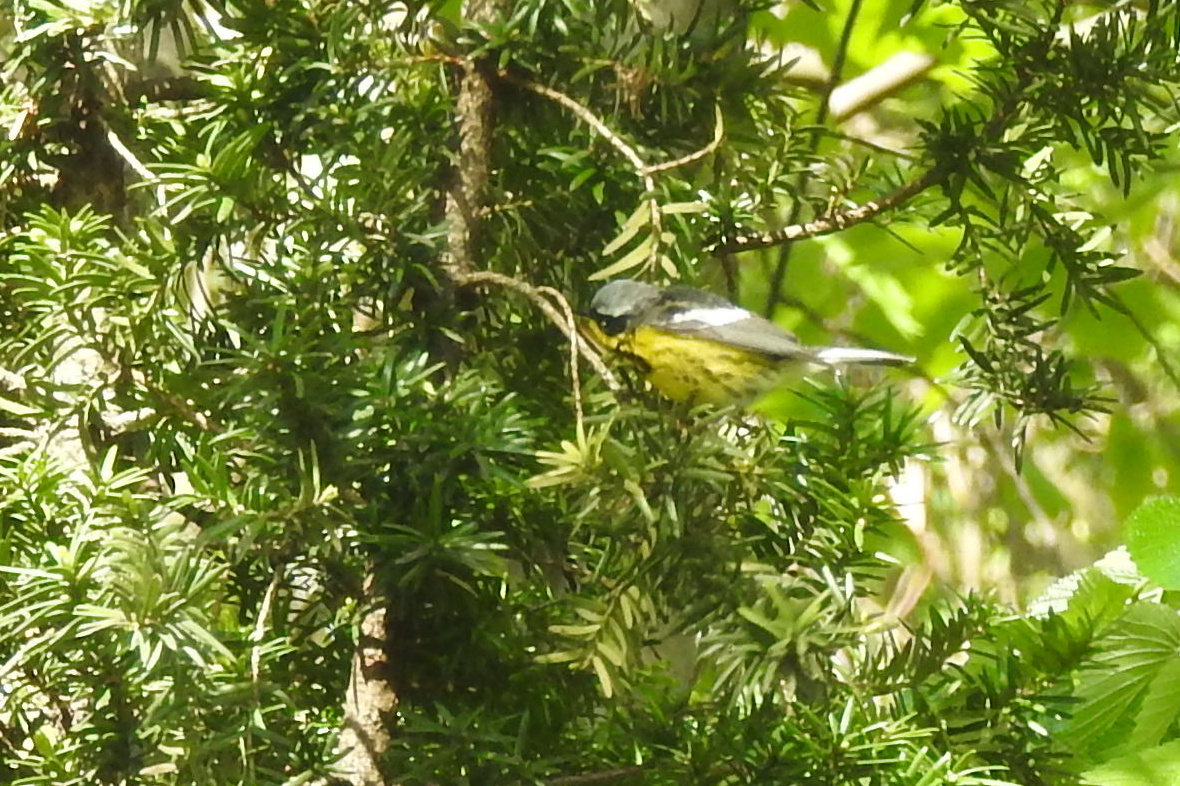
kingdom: Animalia
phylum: Chordata
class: Aves
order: Passeriformes
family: Parulidae
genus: Setophaga
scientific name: Setophaga magnolia
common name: Magnolia warbler
